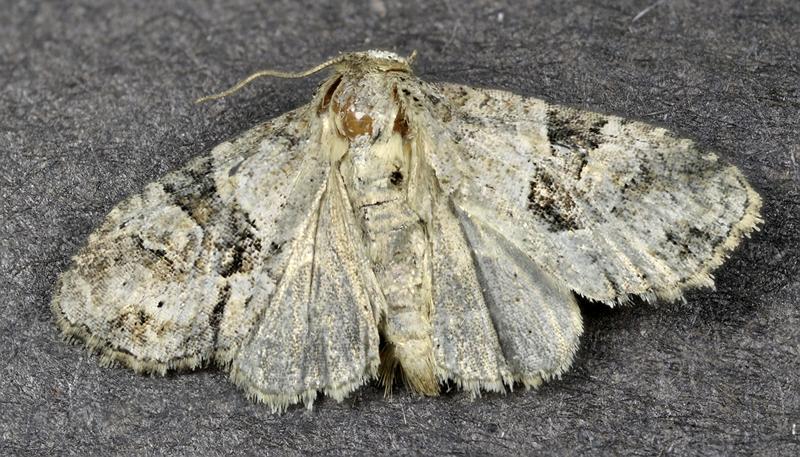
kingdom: Animalia
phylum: Arthropoda
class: Insecta
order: Lepidoptera
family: Noctuidae
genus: Neoligia
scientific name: Neoligia exhausta
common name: Exhausted brocade
